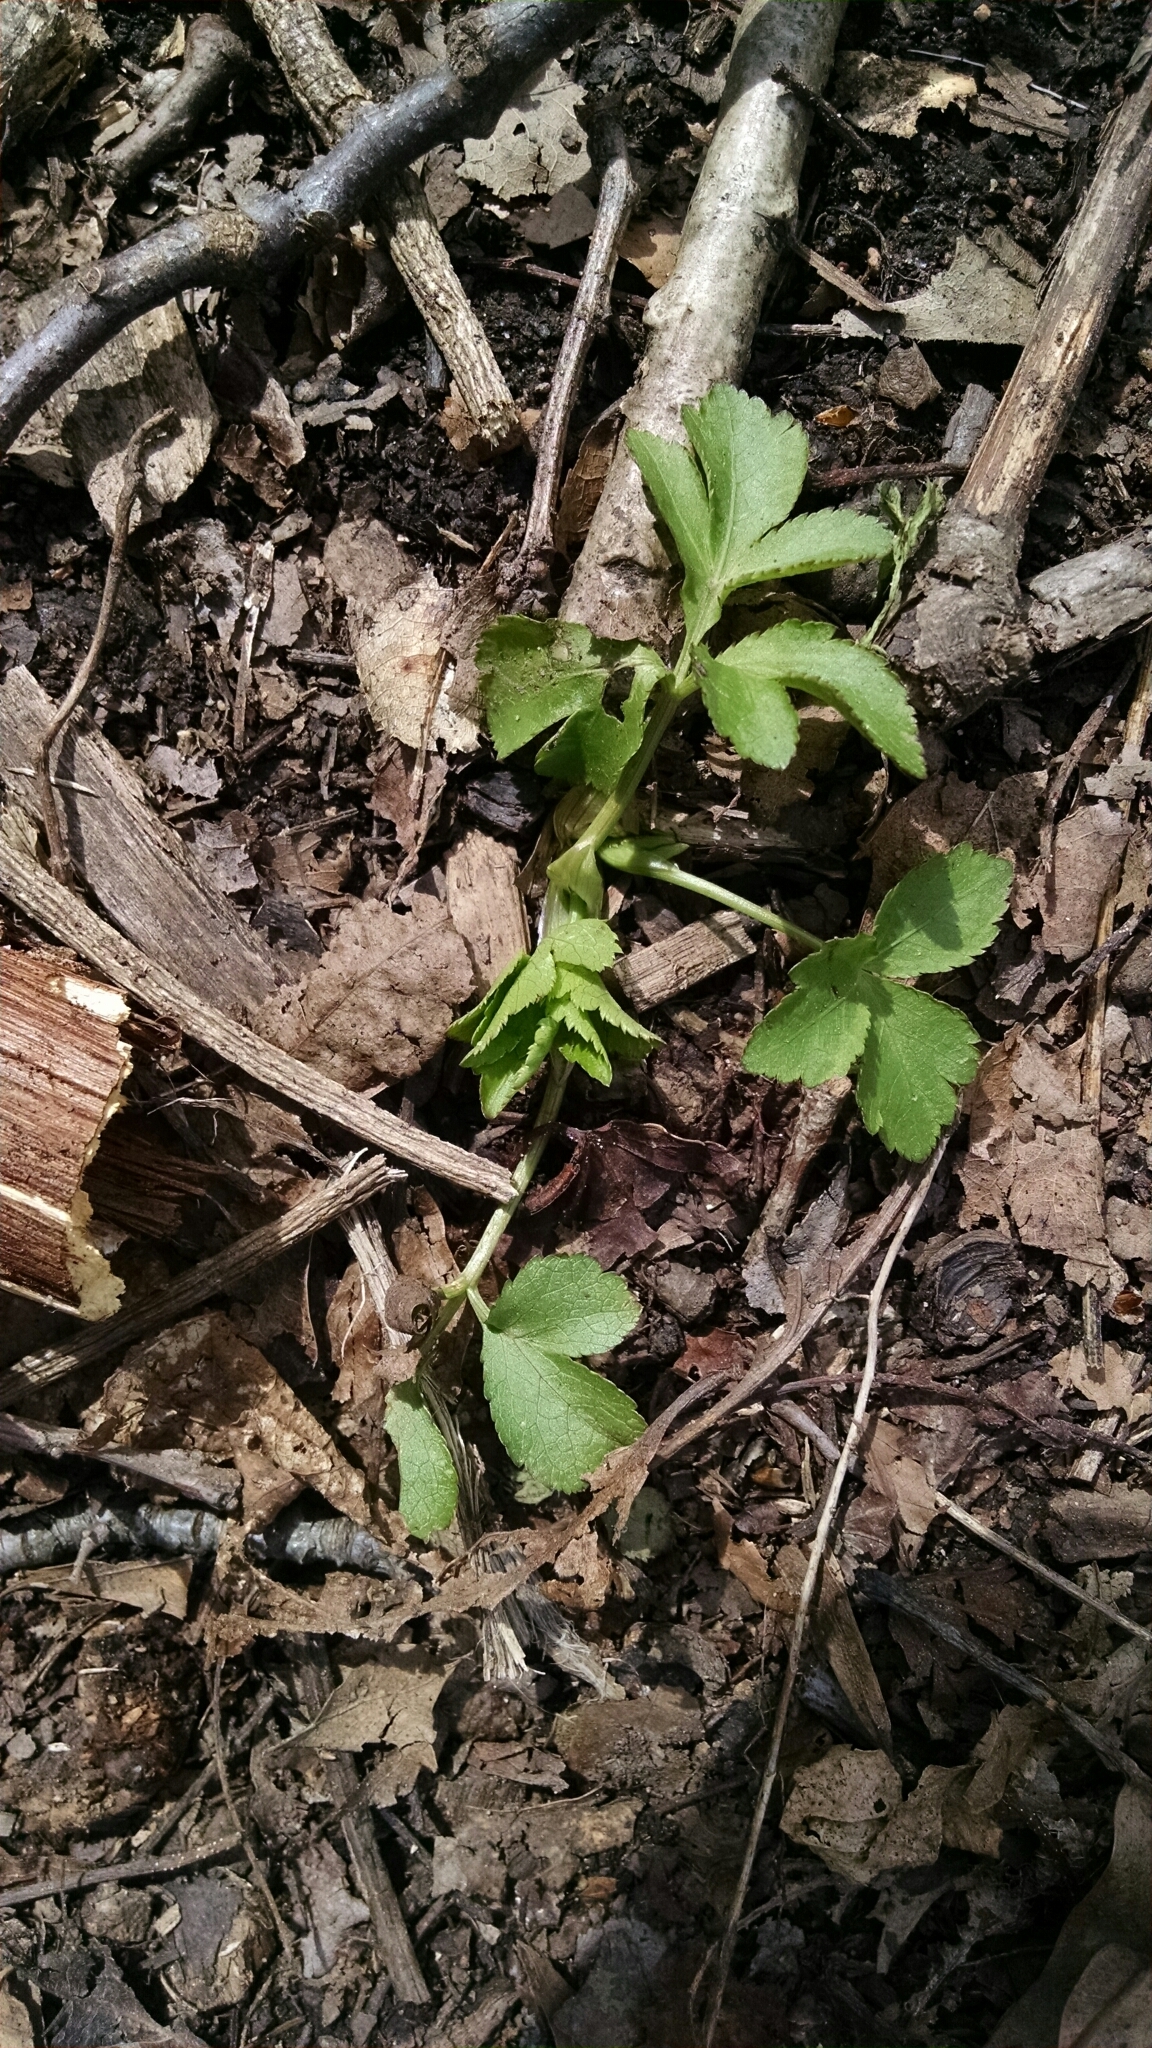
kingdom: Plantae
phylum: Tracheophyta
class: Magnoliopsida
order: Apiales
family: Apiaceae
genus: Cryptotaenia
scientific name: Cryptotaenia canadensis
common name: Honewort
